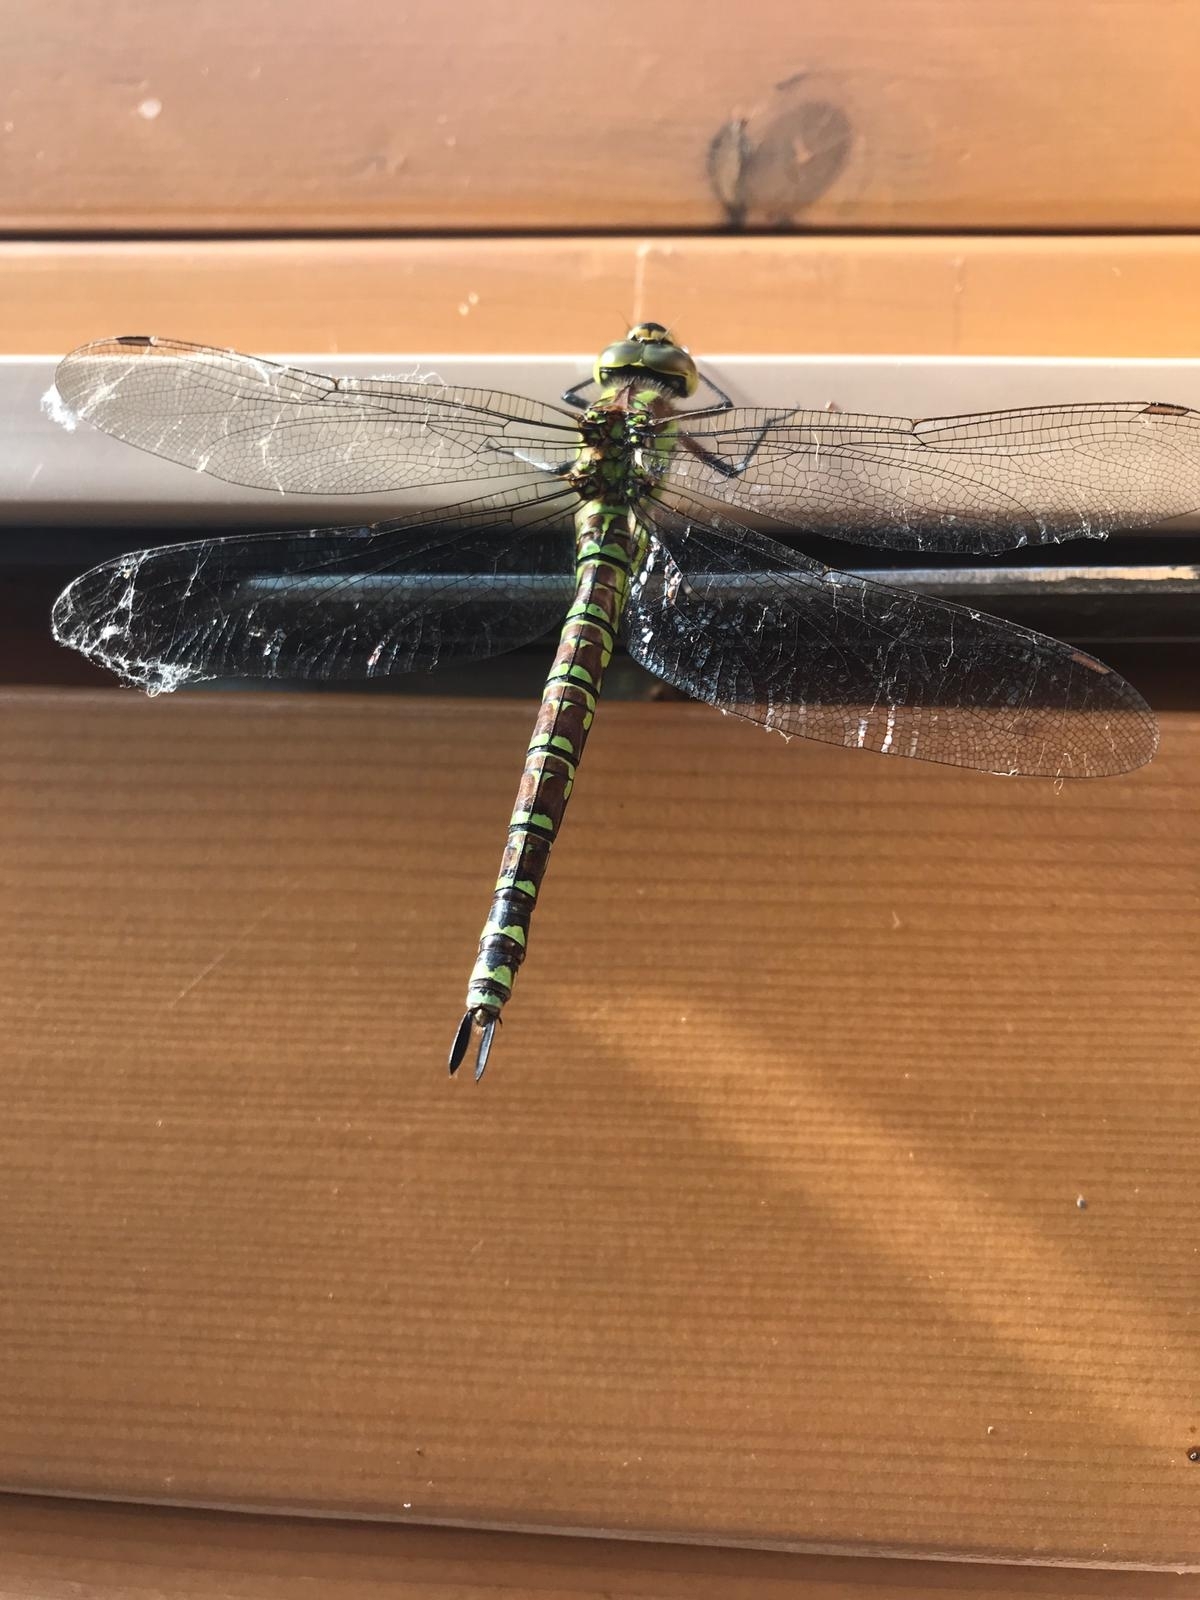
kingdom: Animalia
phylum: Arthropoda
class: Insecta
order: Odonata
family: Aeshnidae
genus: Aeshna
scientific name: Aeshna cyanea
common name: Southern hawker
